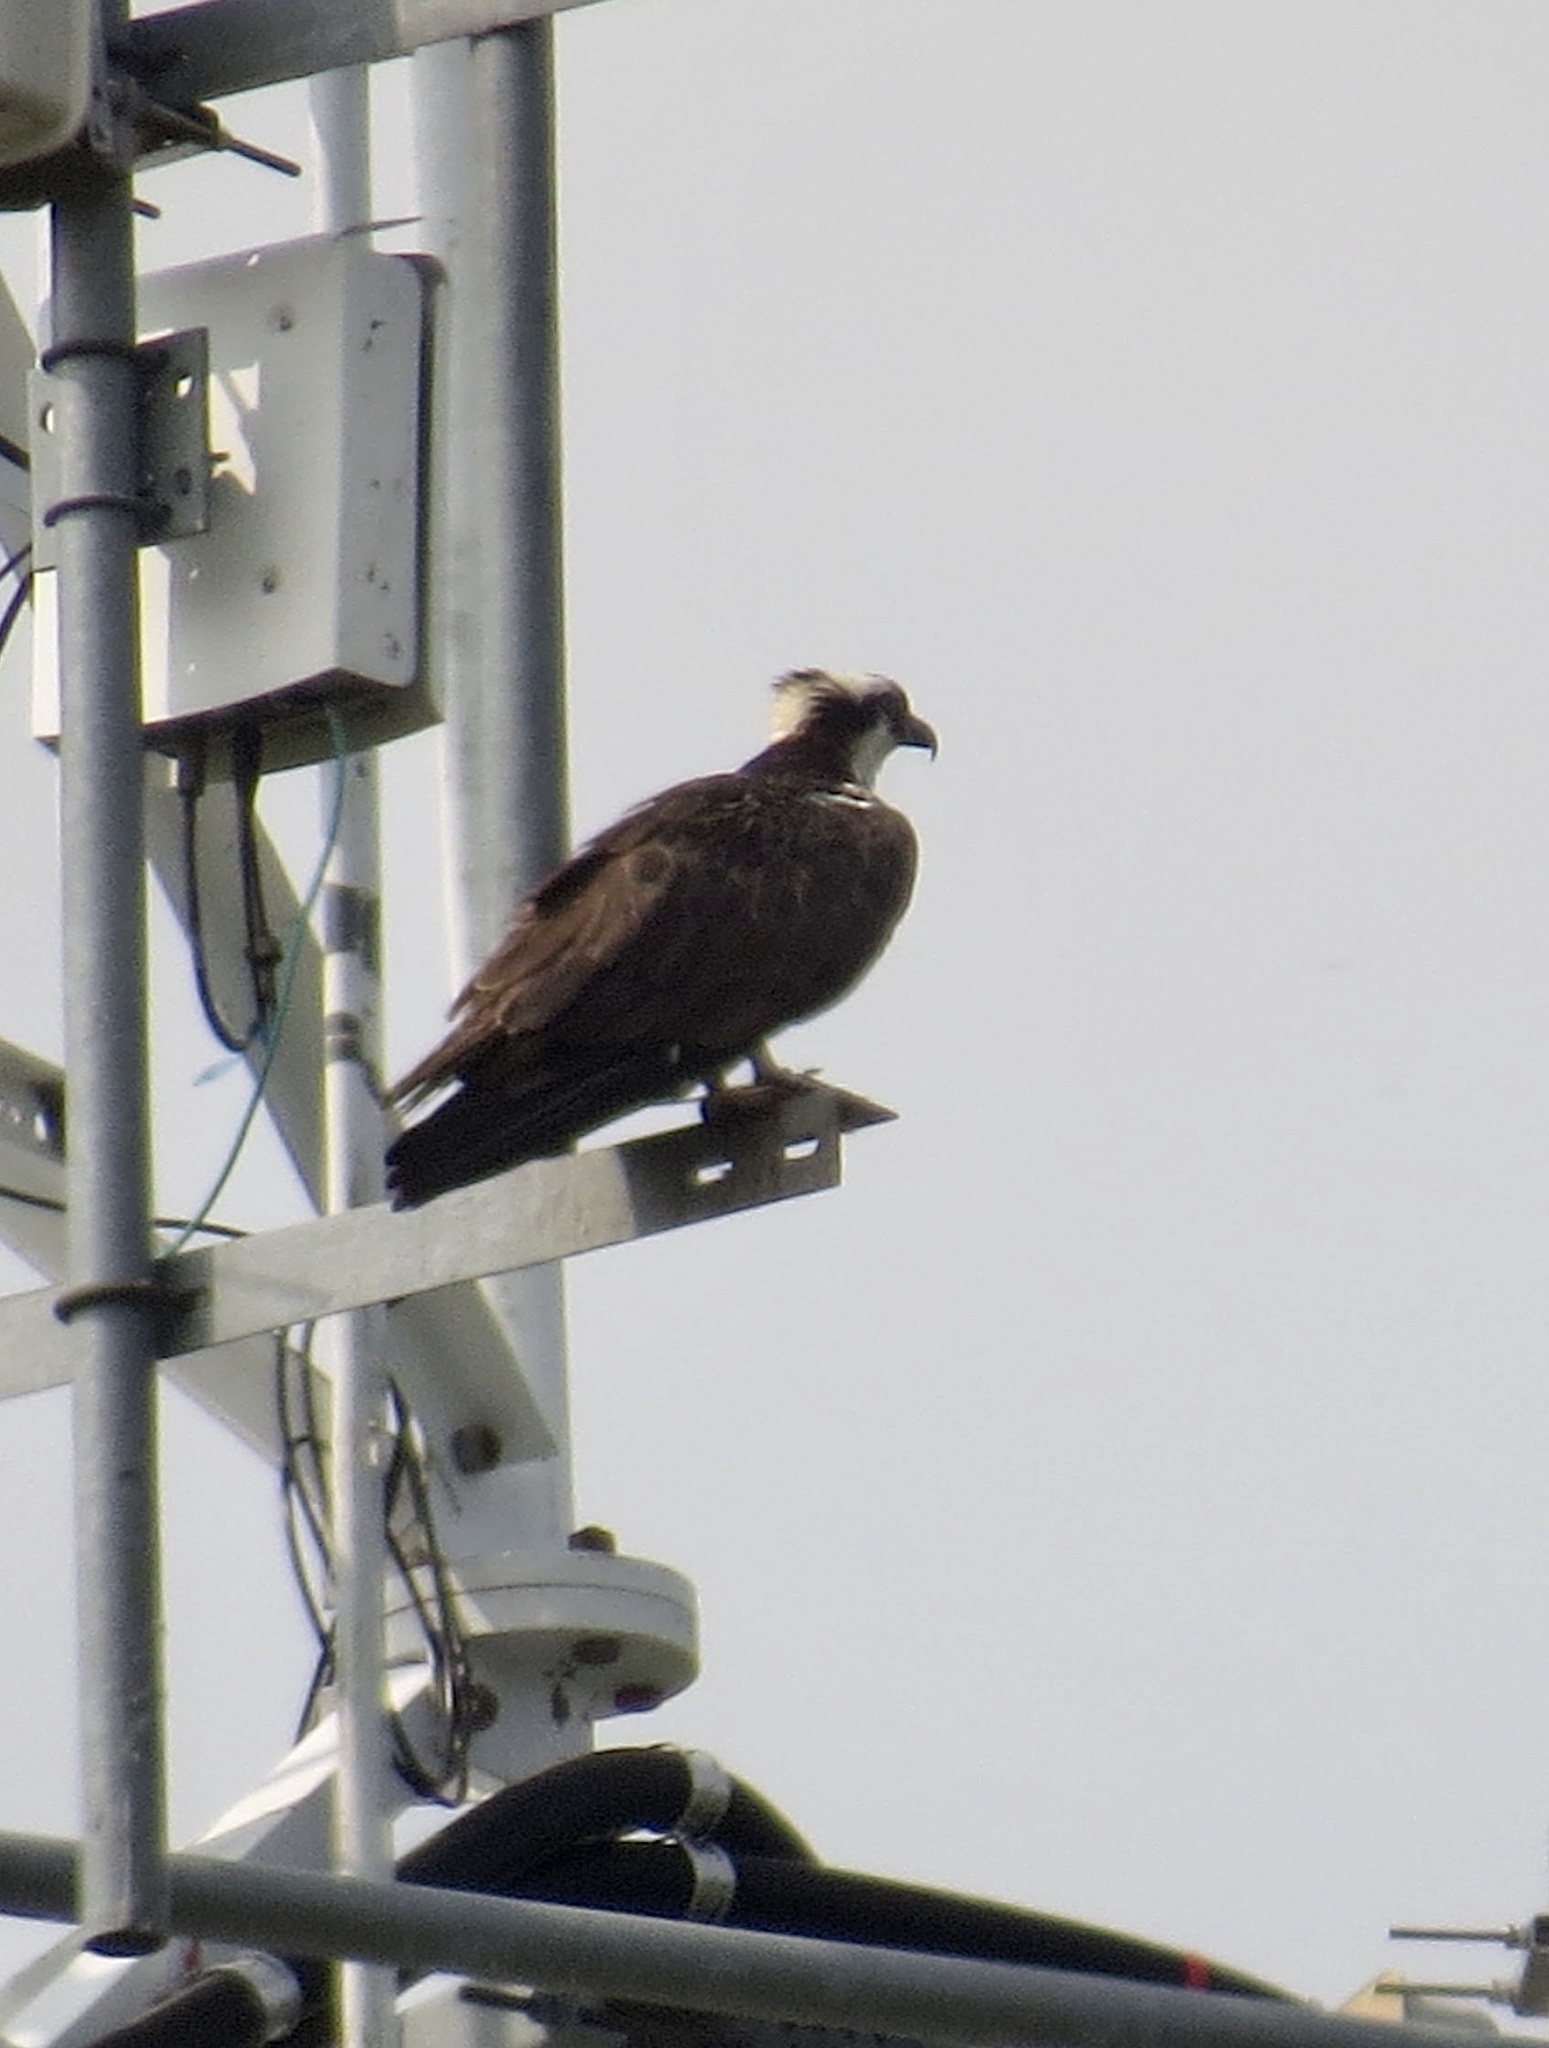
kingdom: Animalia
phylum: Chordata
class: Aves
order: Accipitriformes
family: Pandionidae
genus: Pandion
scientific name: Pandion haliaetus
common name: Osprey
